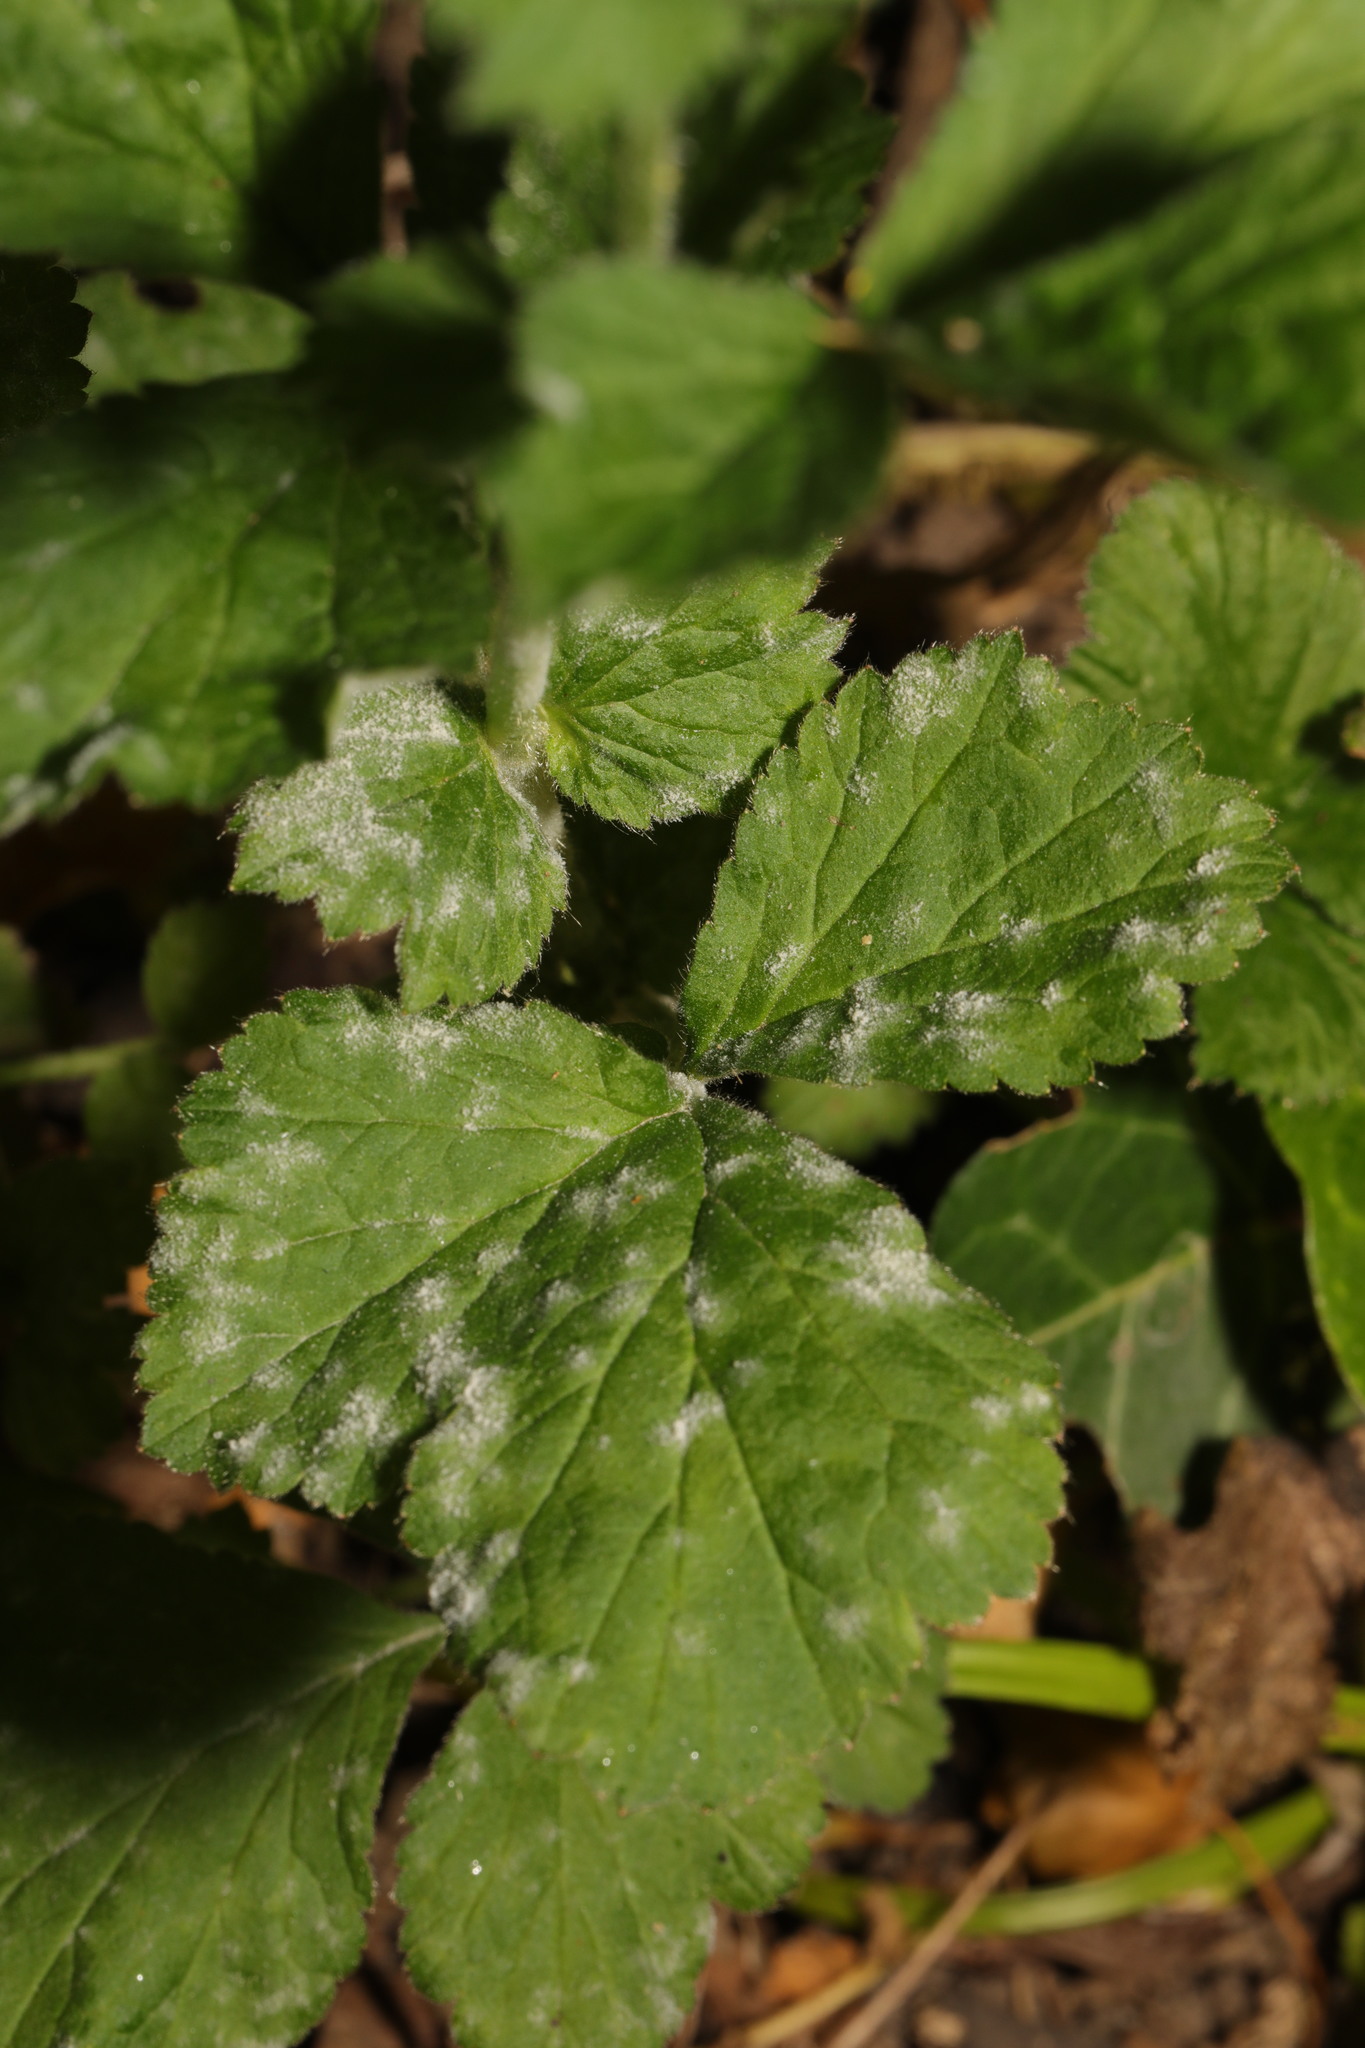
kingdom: Fungi
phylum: Ascomycota
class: Leotiomycetes
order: Helotiales
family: Erysiphaceae
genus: Podosphaera
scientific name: Podosphaera aphanis
